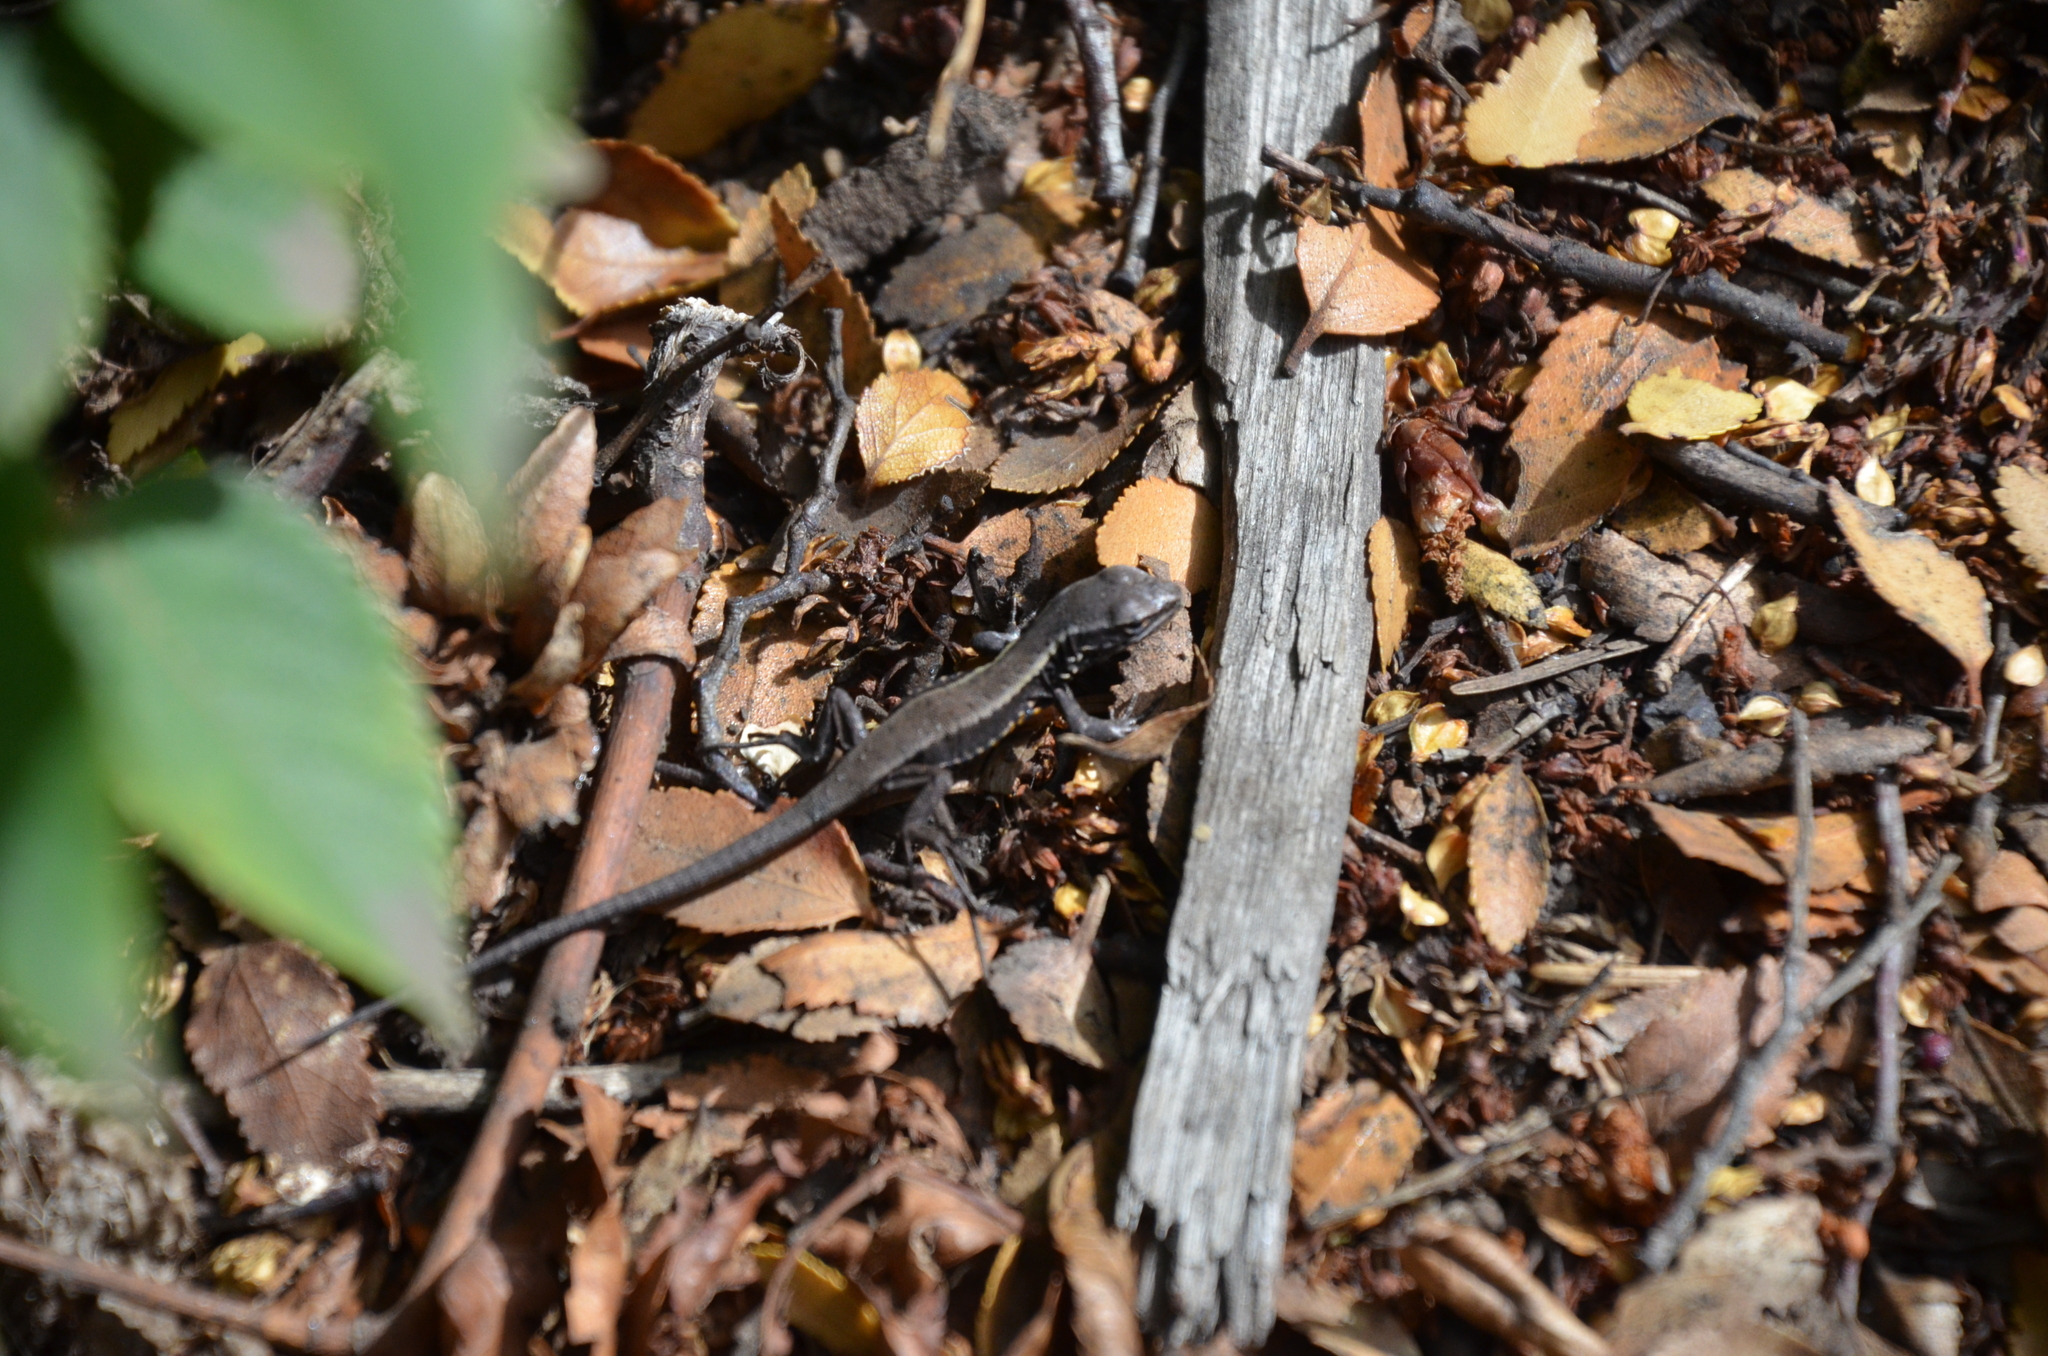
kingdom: Animalia
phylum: Chordata
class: Squamata
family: Liolaemidae
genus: Liolaemus
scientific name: Liolaemus pictus
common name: Painted tree iguana
